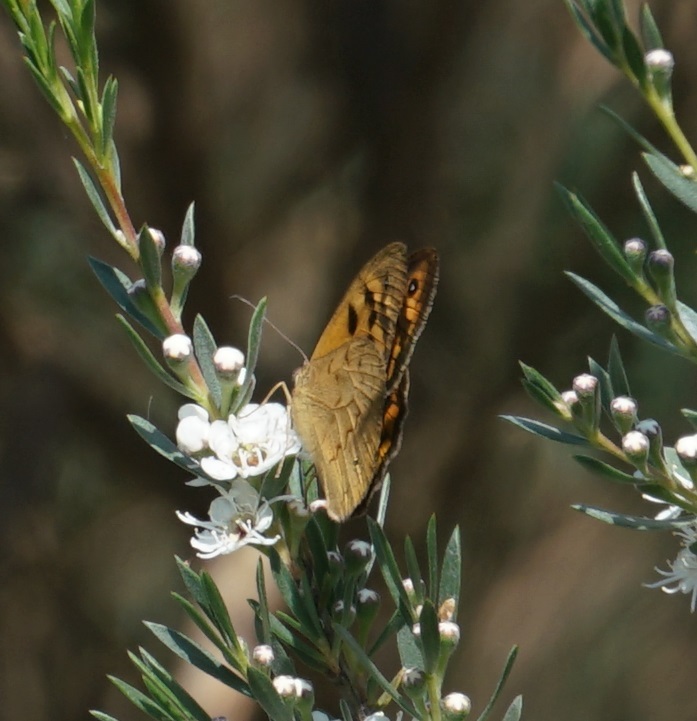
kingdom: Animalia
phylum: Arthropoda
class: Insecta
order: Lepidoptera
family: Nymphalidae
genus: Heteronympha
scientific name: Heteronympha merope
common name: Common brown
